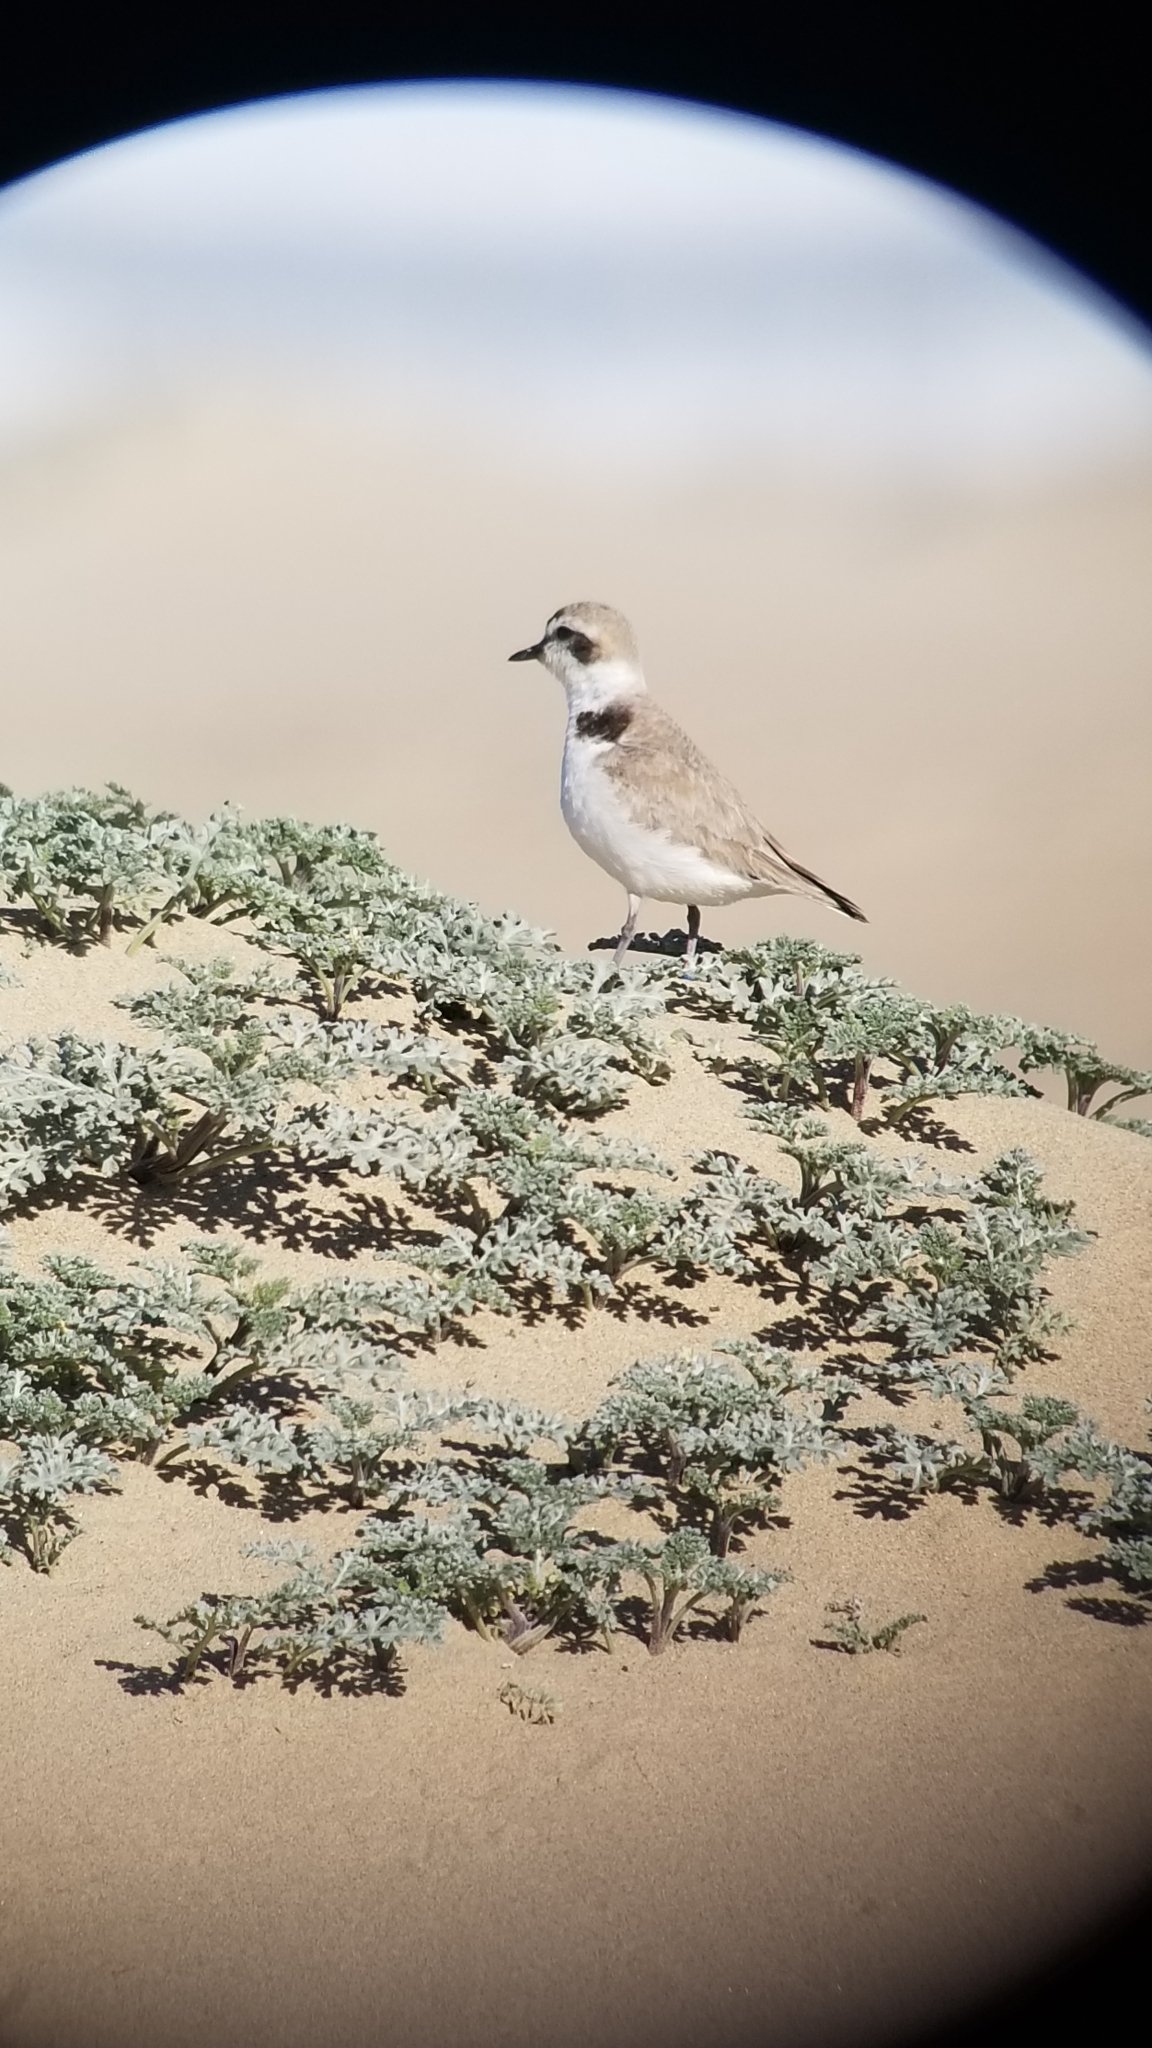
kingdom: Animalia
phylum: Chordata
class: Aves
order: Charadriiformes
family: Charadriidae
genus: Anarhynchus
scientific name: Anarhynchus
